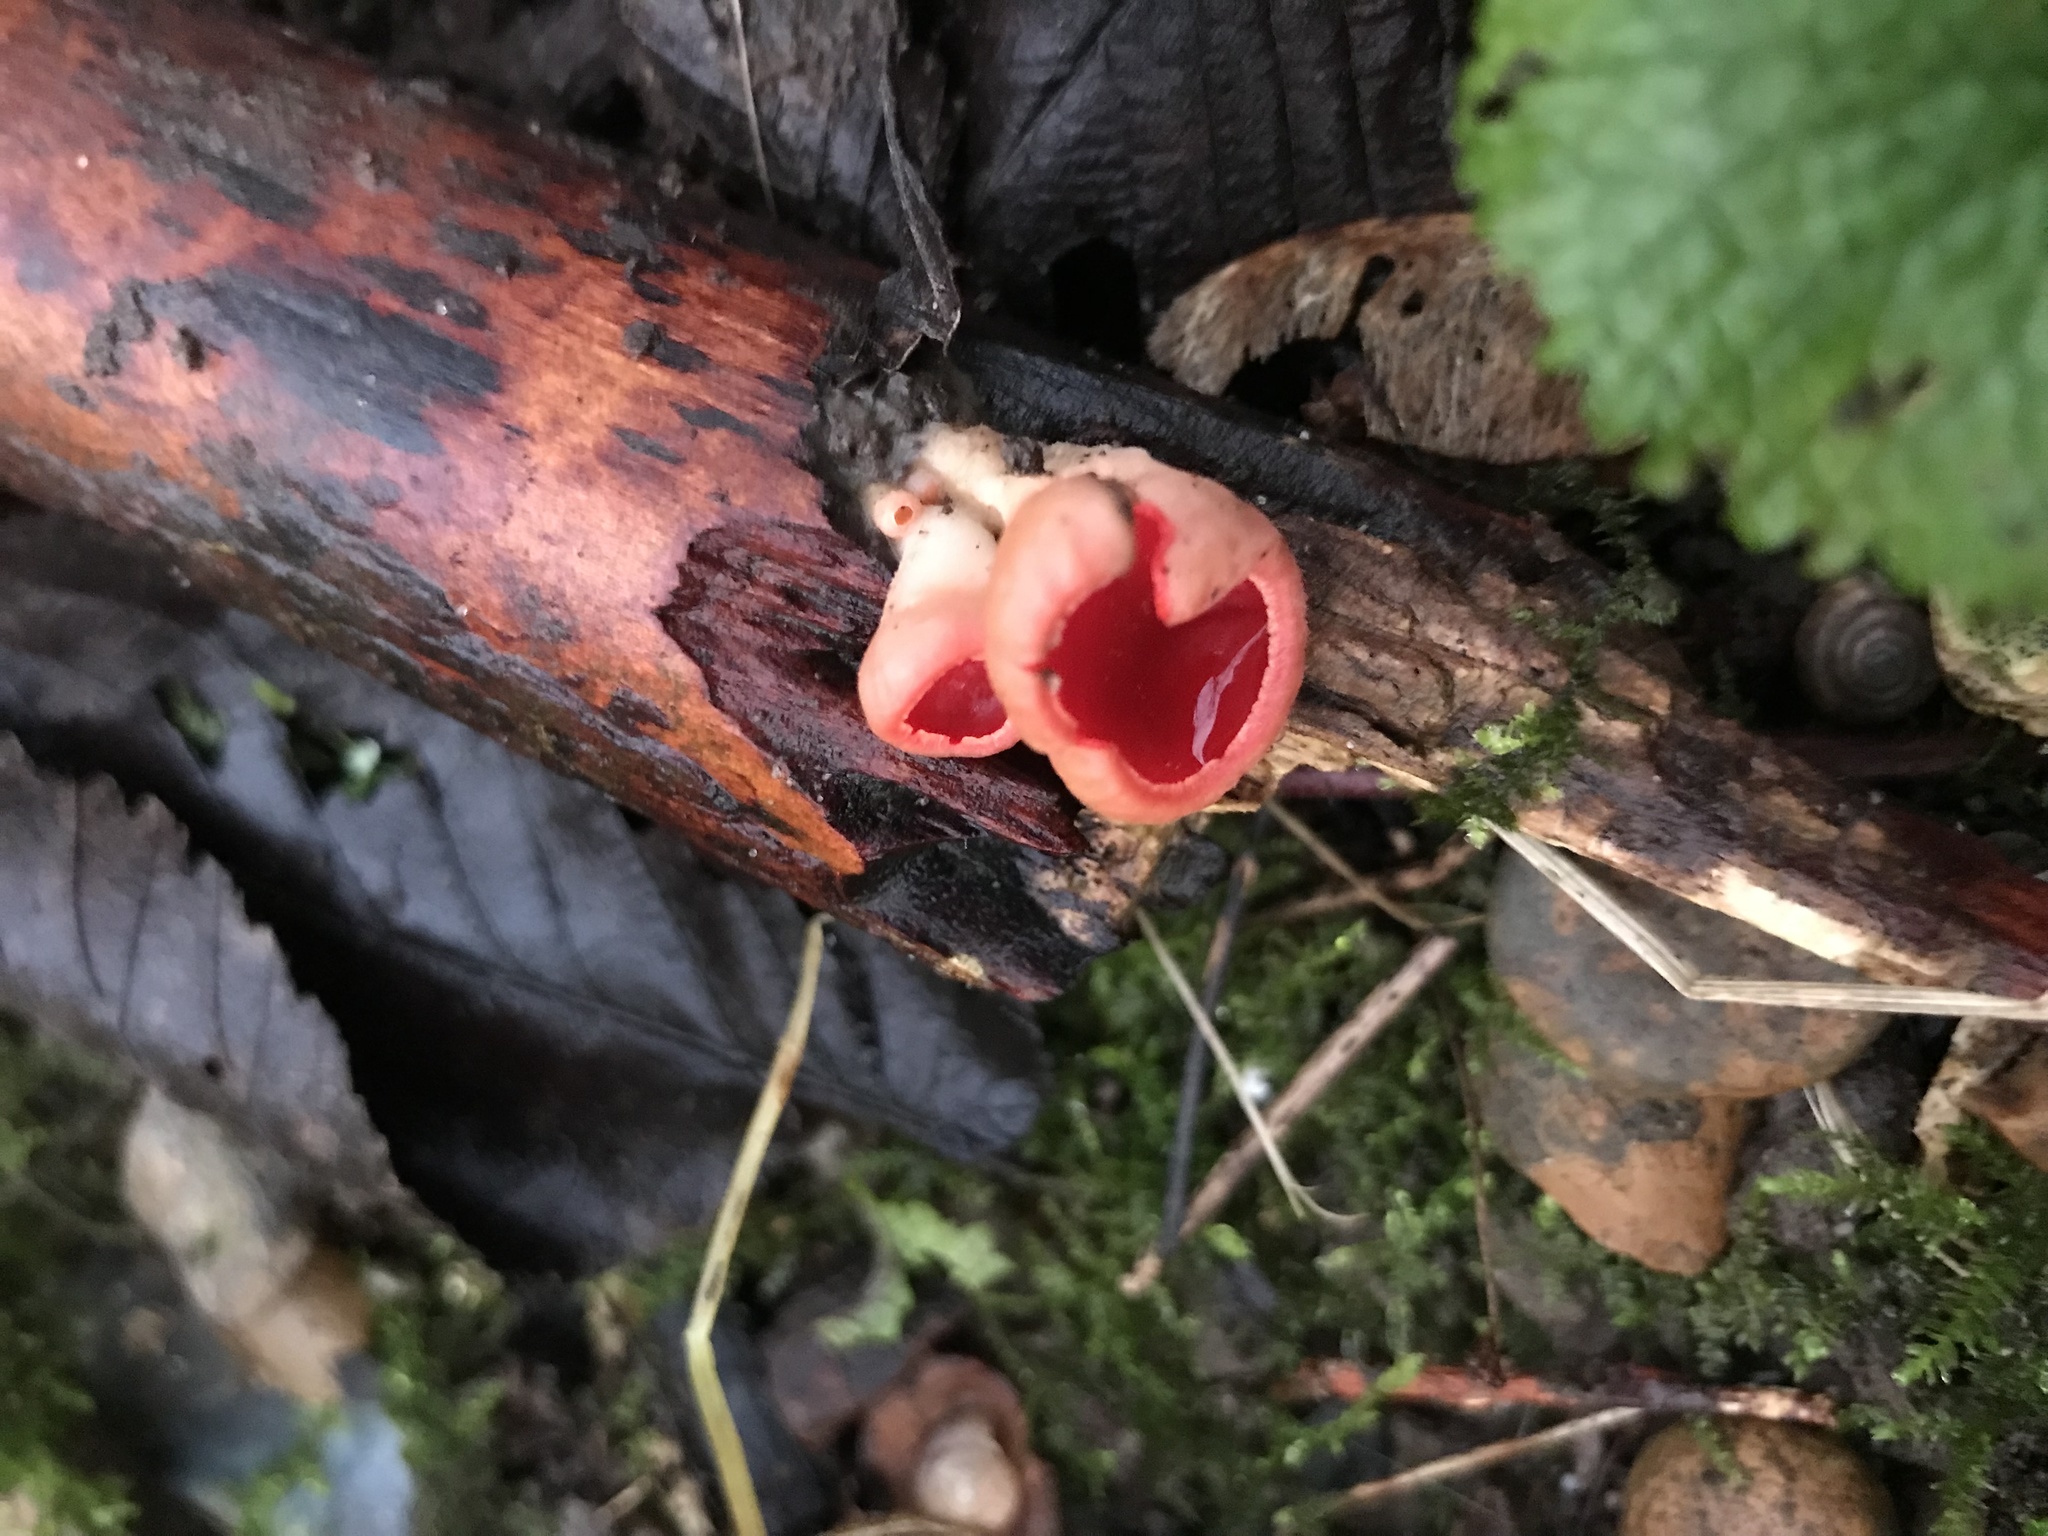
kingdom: Fungi
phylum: Ascomycota
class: Pezizomycetes
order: Pezizales
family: Sarcoscyphaceae
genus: Sarcoscypha
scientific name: Sarcoscypha
